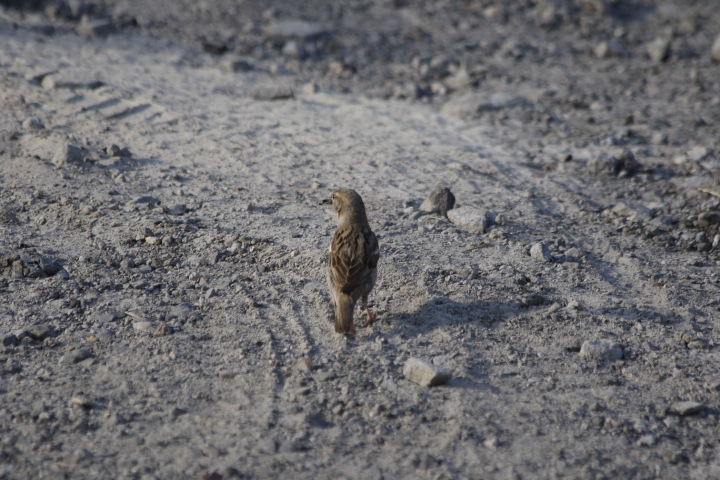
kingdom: Animalia
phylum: Chordata
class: Aves
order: Passeriformes
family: Passeridae
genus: Passer
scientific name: Passer domesticus
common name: House sparrow
